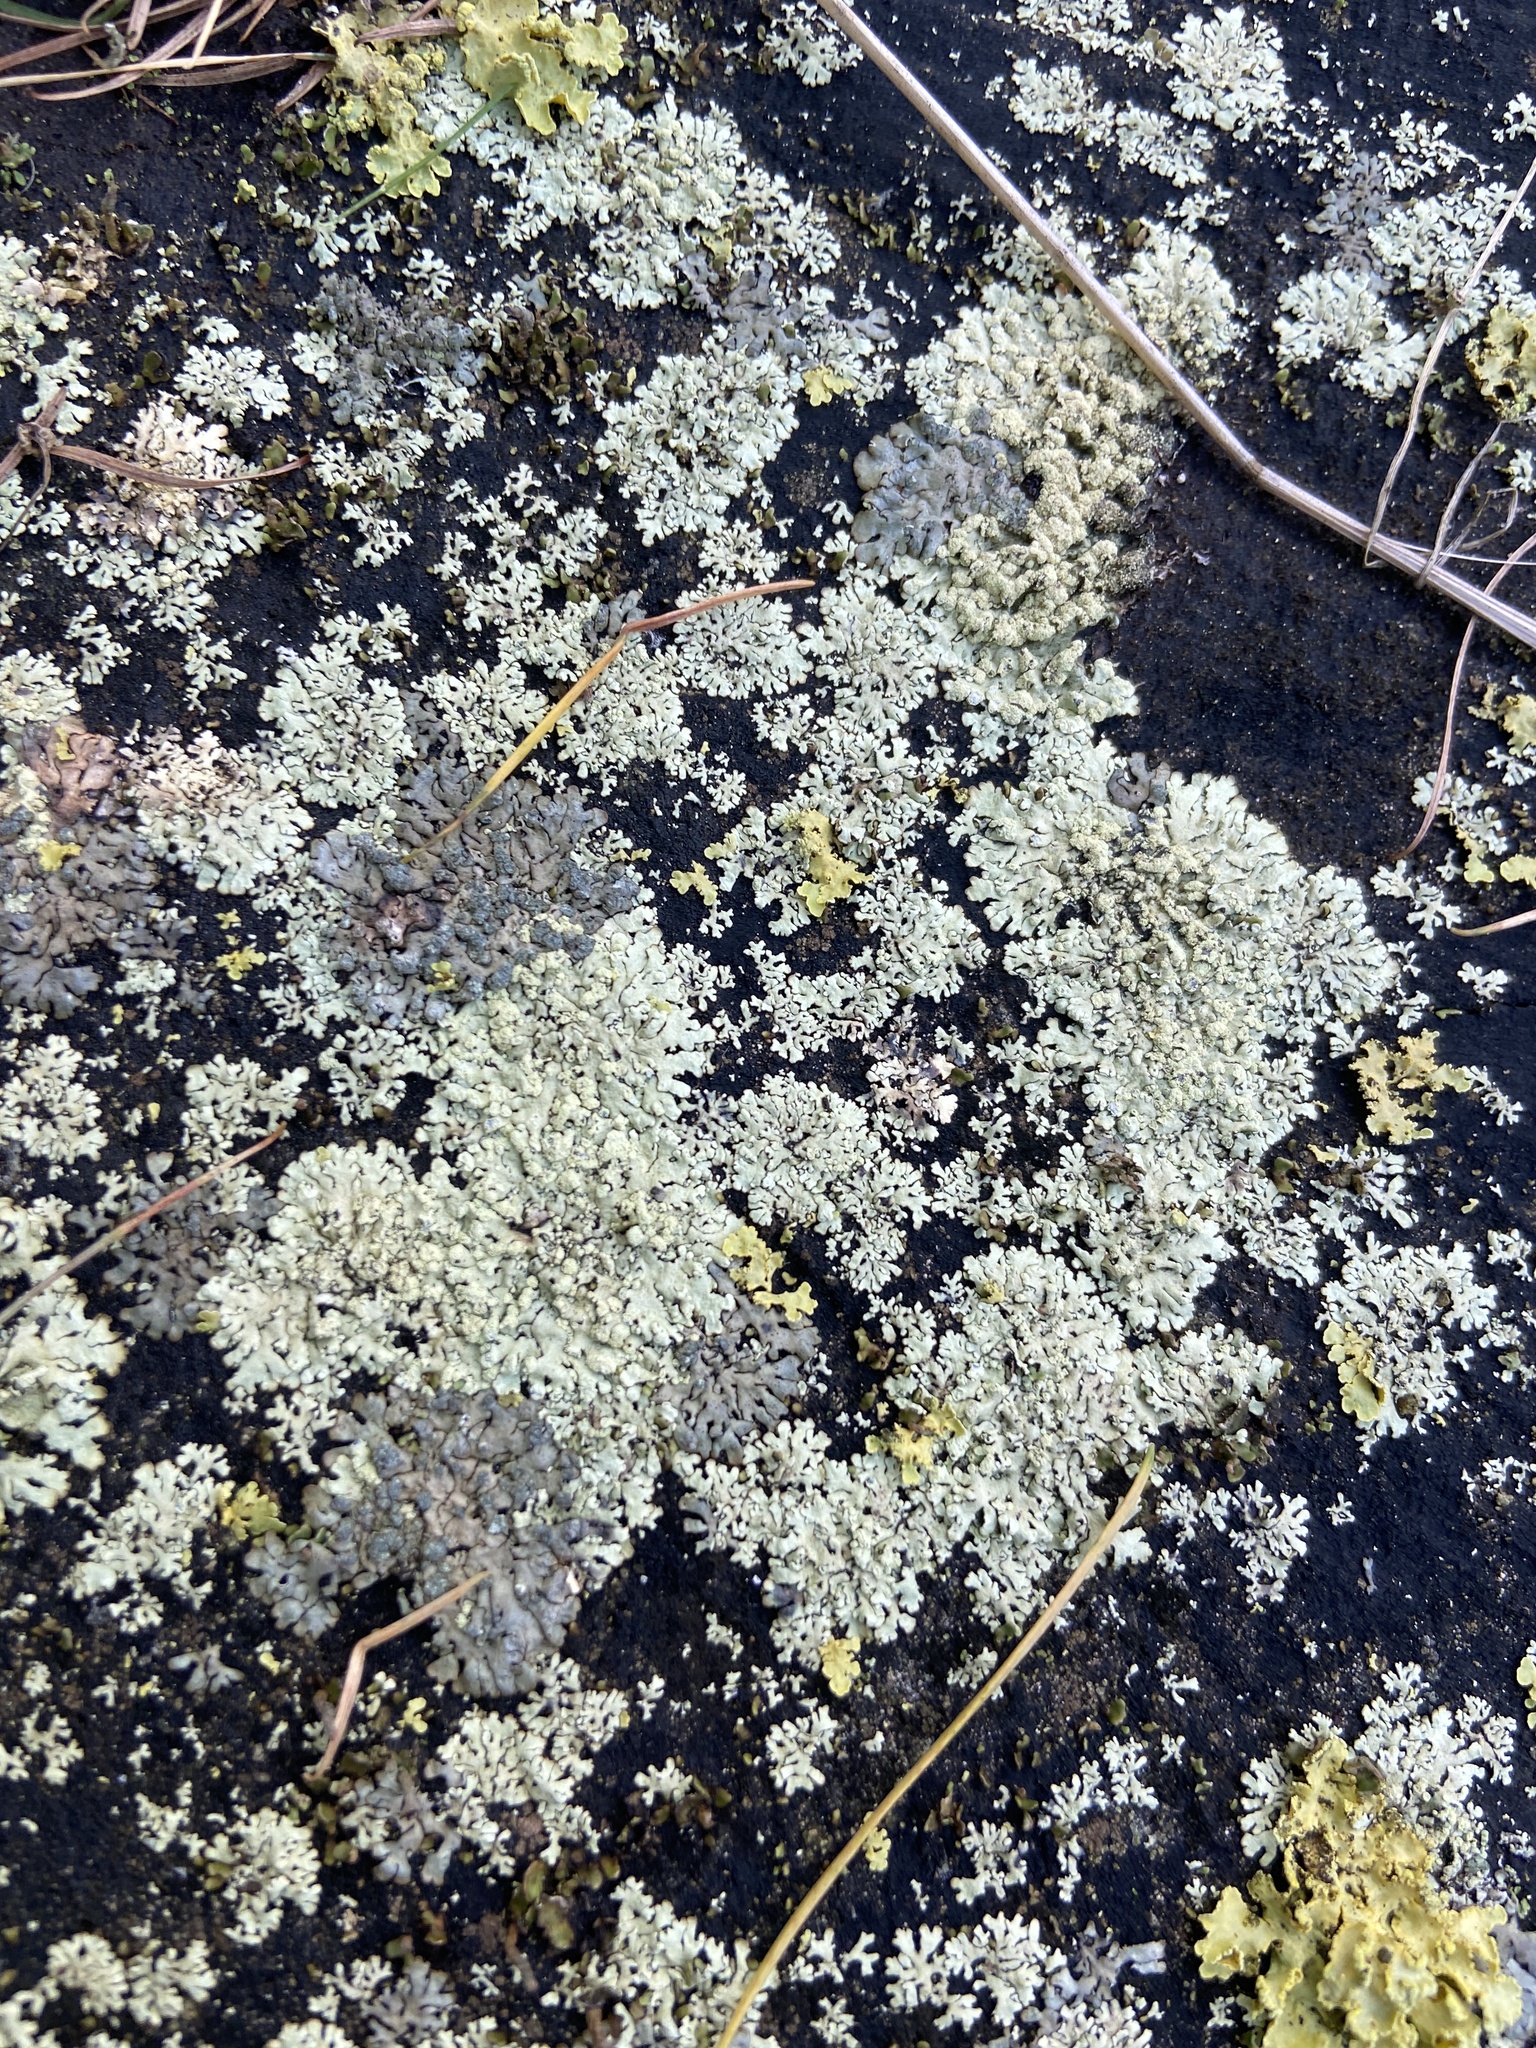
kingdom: Fungi
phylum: Ascomycota
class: Lecanoromycetes
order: Lecanorales
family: Parmeliaceae
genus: Parmeliopsis
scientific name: Parmeliopsis ambigua
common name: Green starburst lichen
